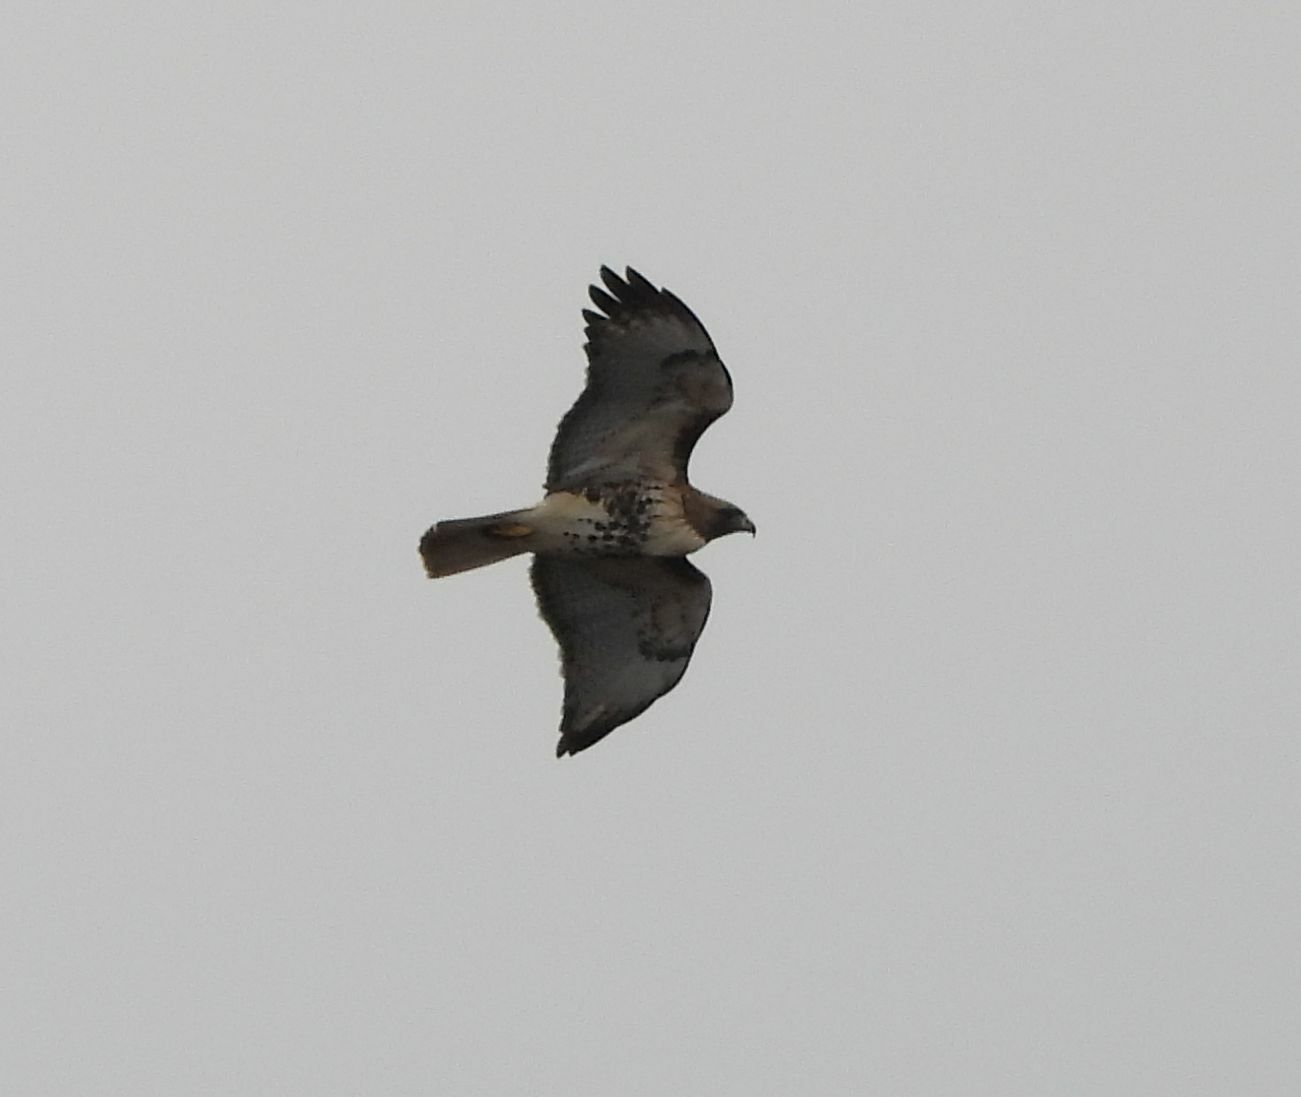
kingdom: Animalia
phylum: Chordata
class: Aves
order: Accipitriformes
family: Accipitridae
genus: Buteo
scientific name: Buteo jamaicensis
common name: Red-tailed hawk
